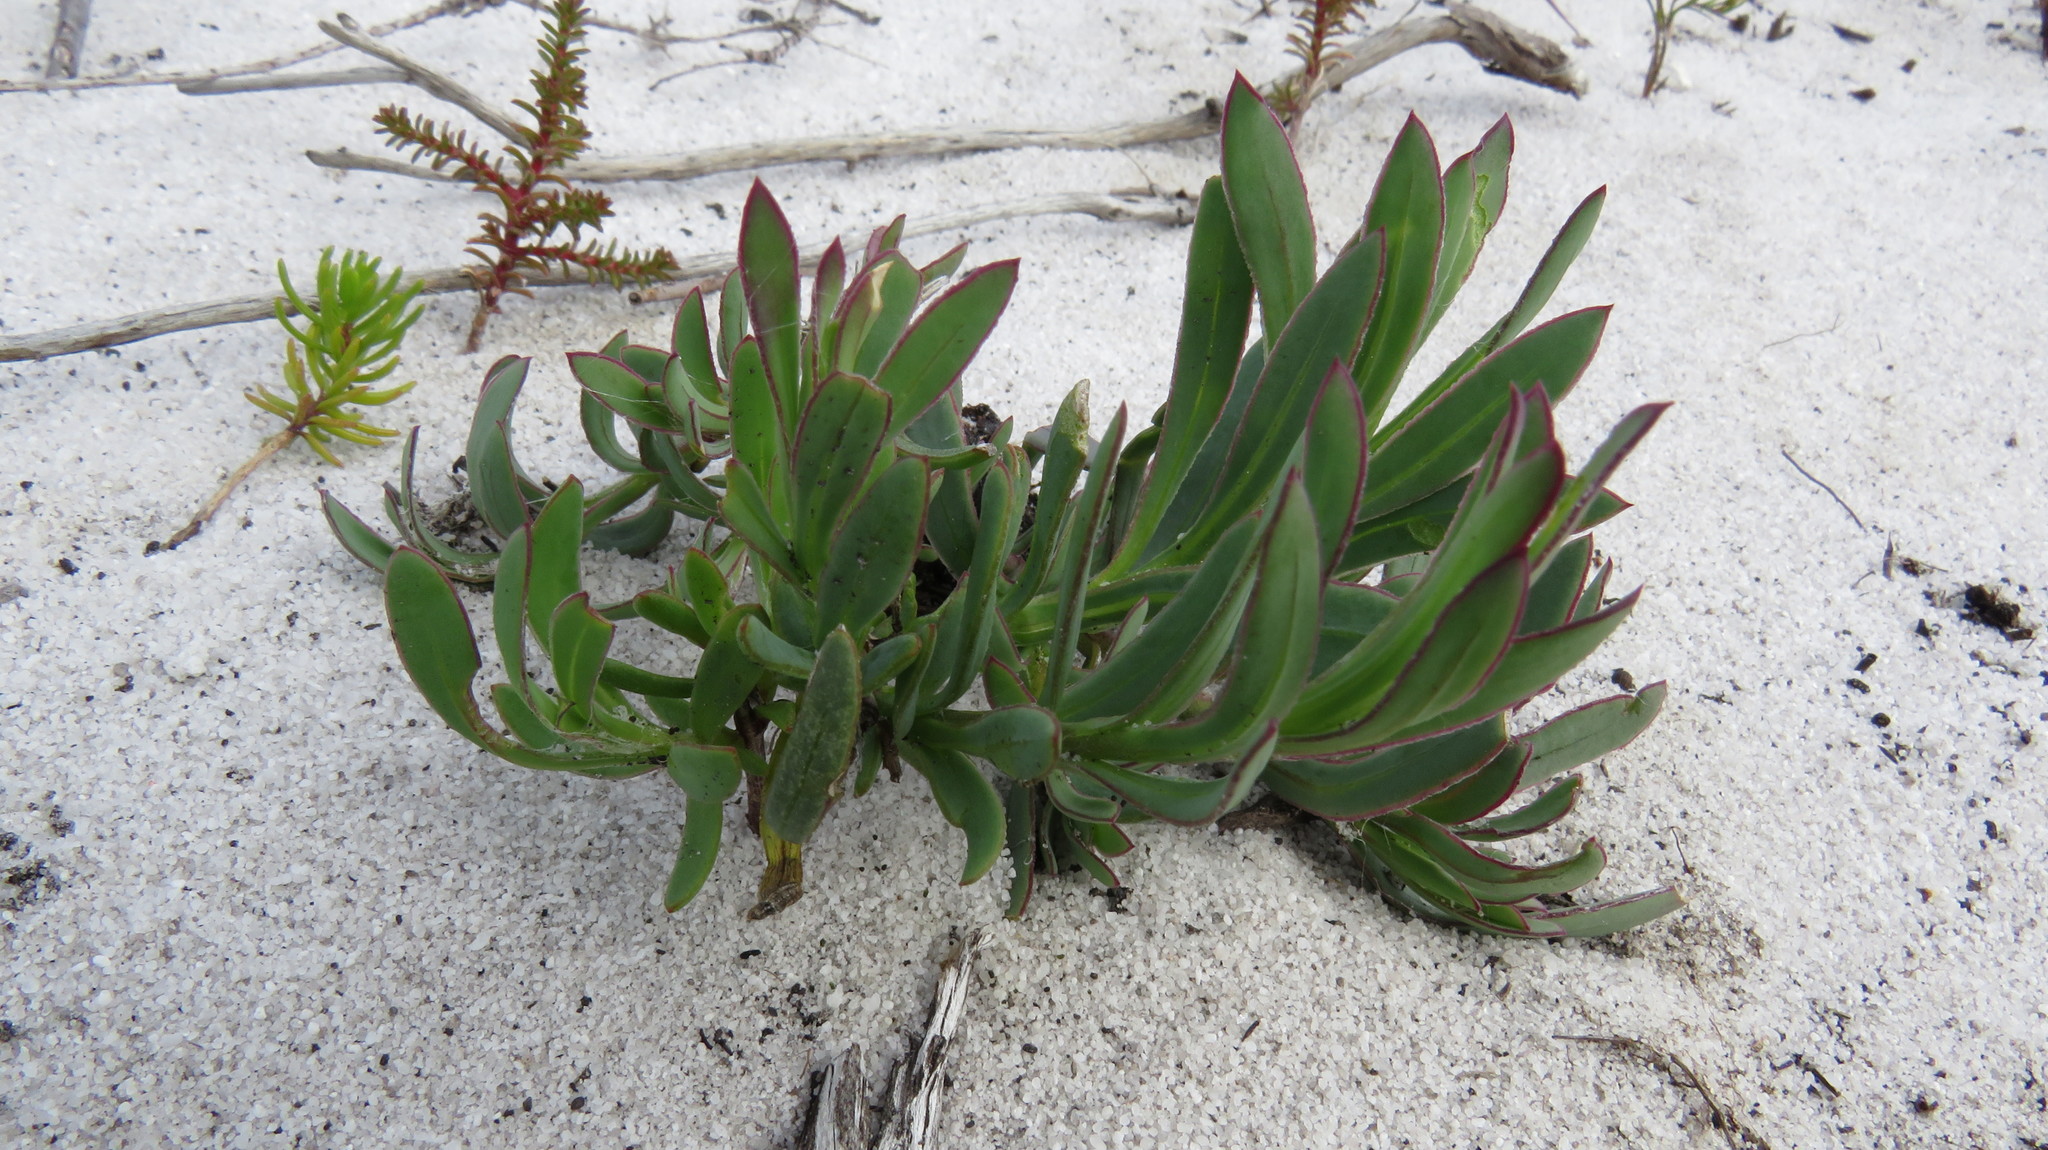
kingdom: Plantae
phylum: Tracheophyta
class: Magnoliopsida
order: Asterales
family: Asteraceae
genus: Osteospermum
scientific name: Osteospermum polygaloides
